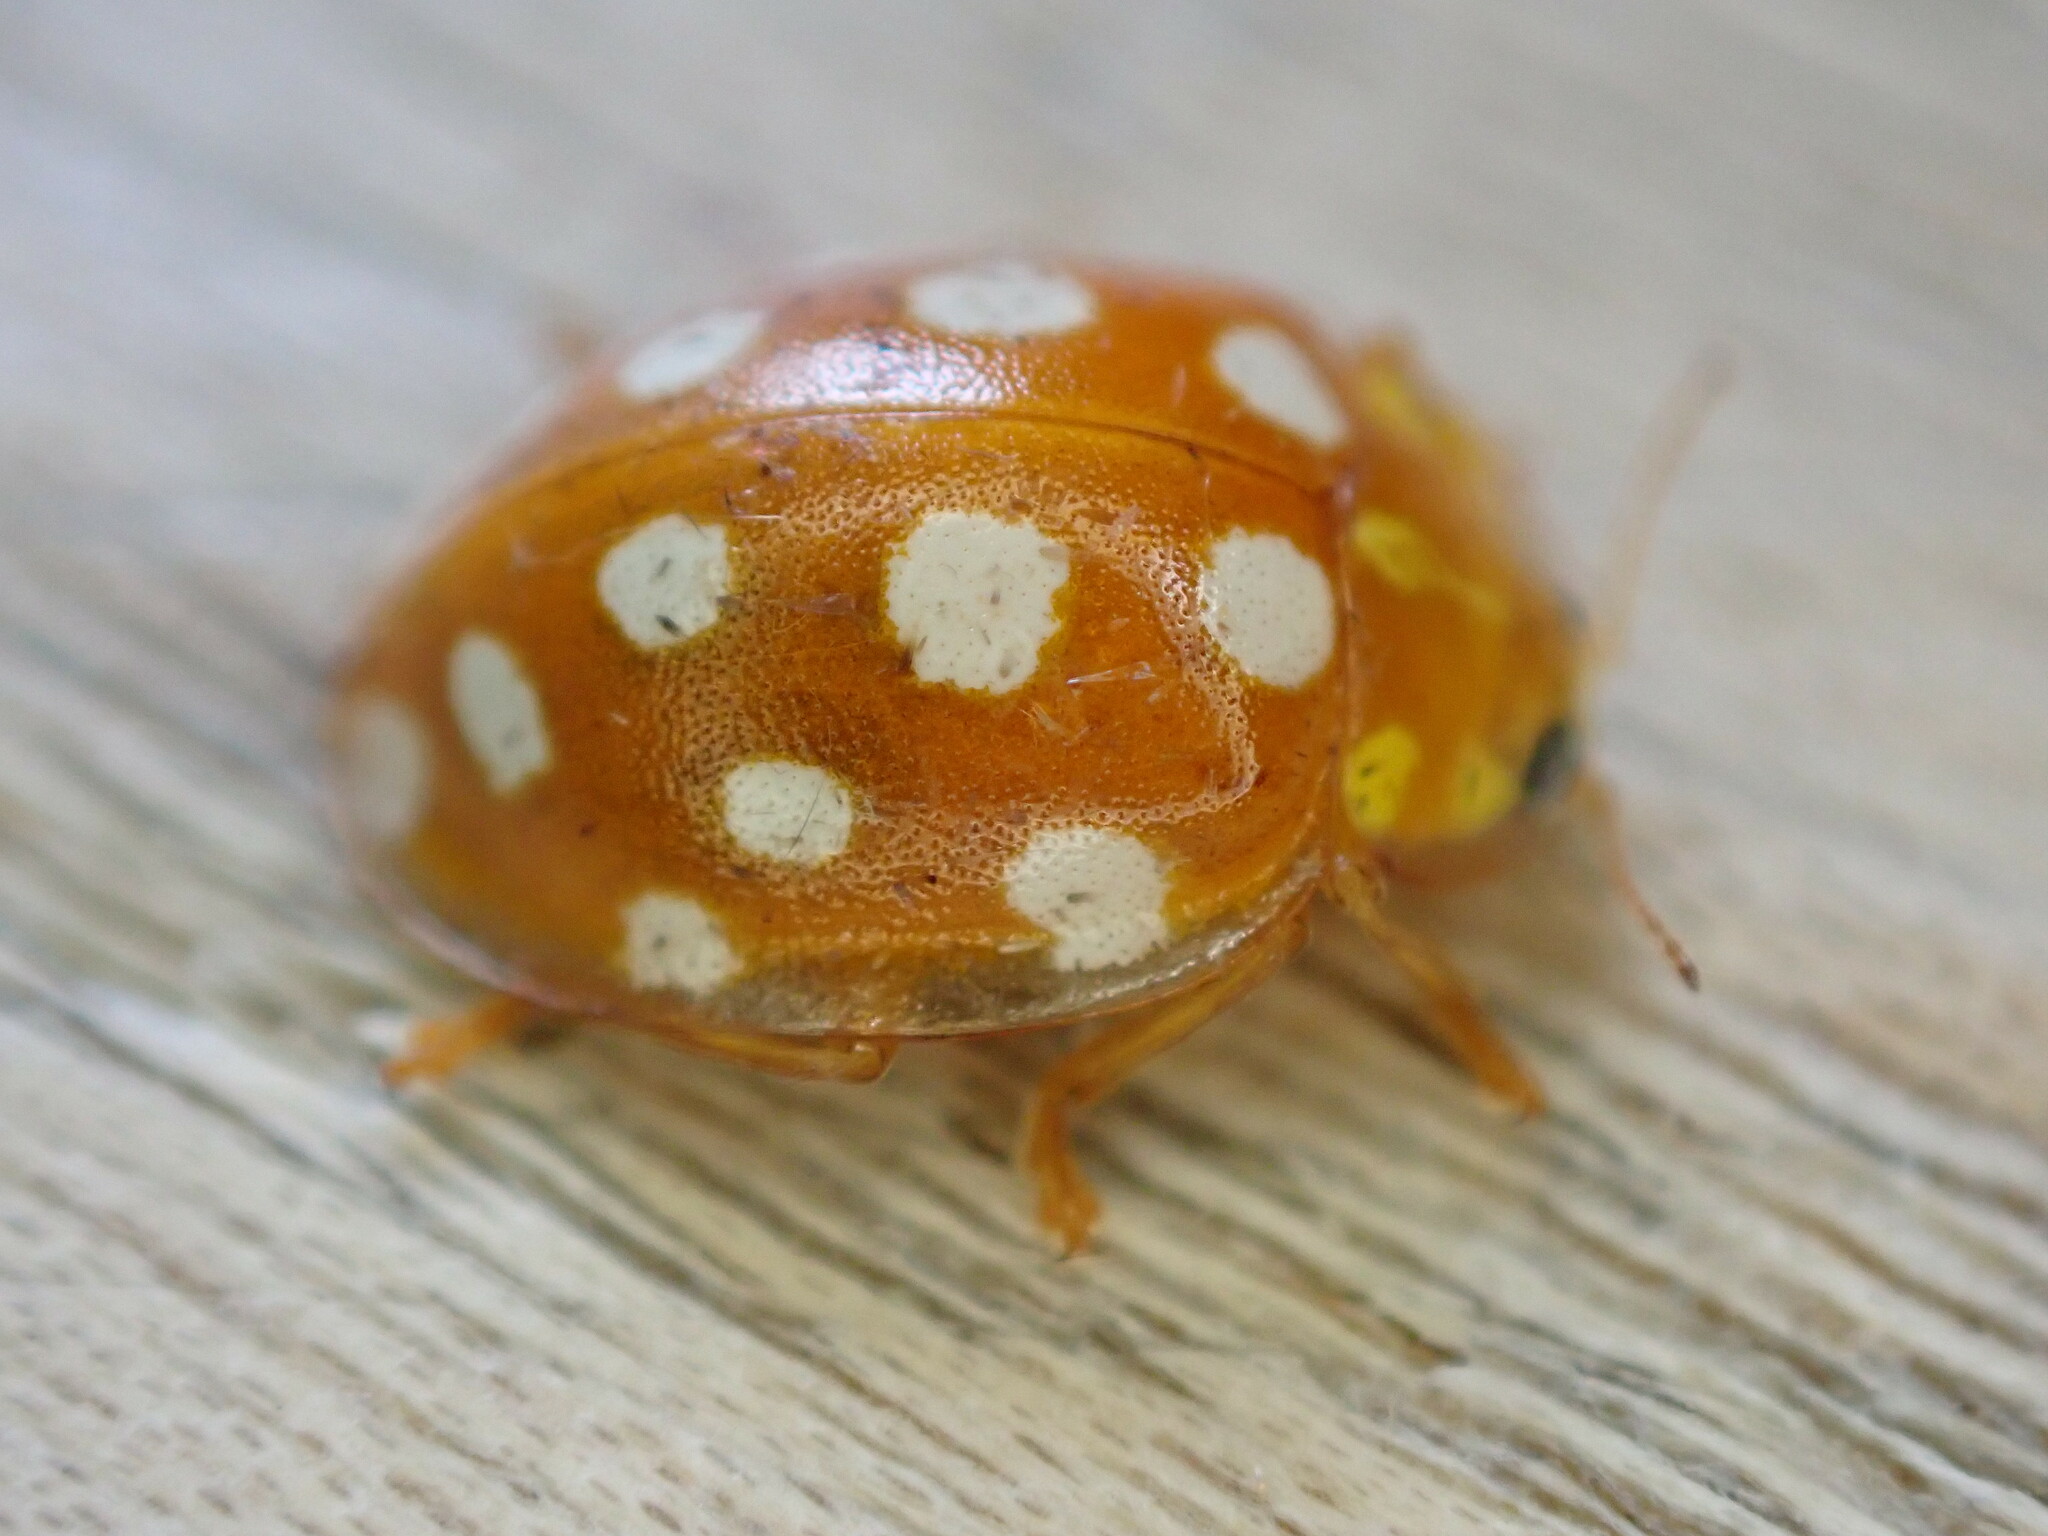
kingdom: Animalia
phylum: Arthropoda
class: Insecta
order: Coleoptera
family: Coccinellidae
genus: Halyzia
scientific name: Halyzia sedecimguttata
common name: Orange ladybird
